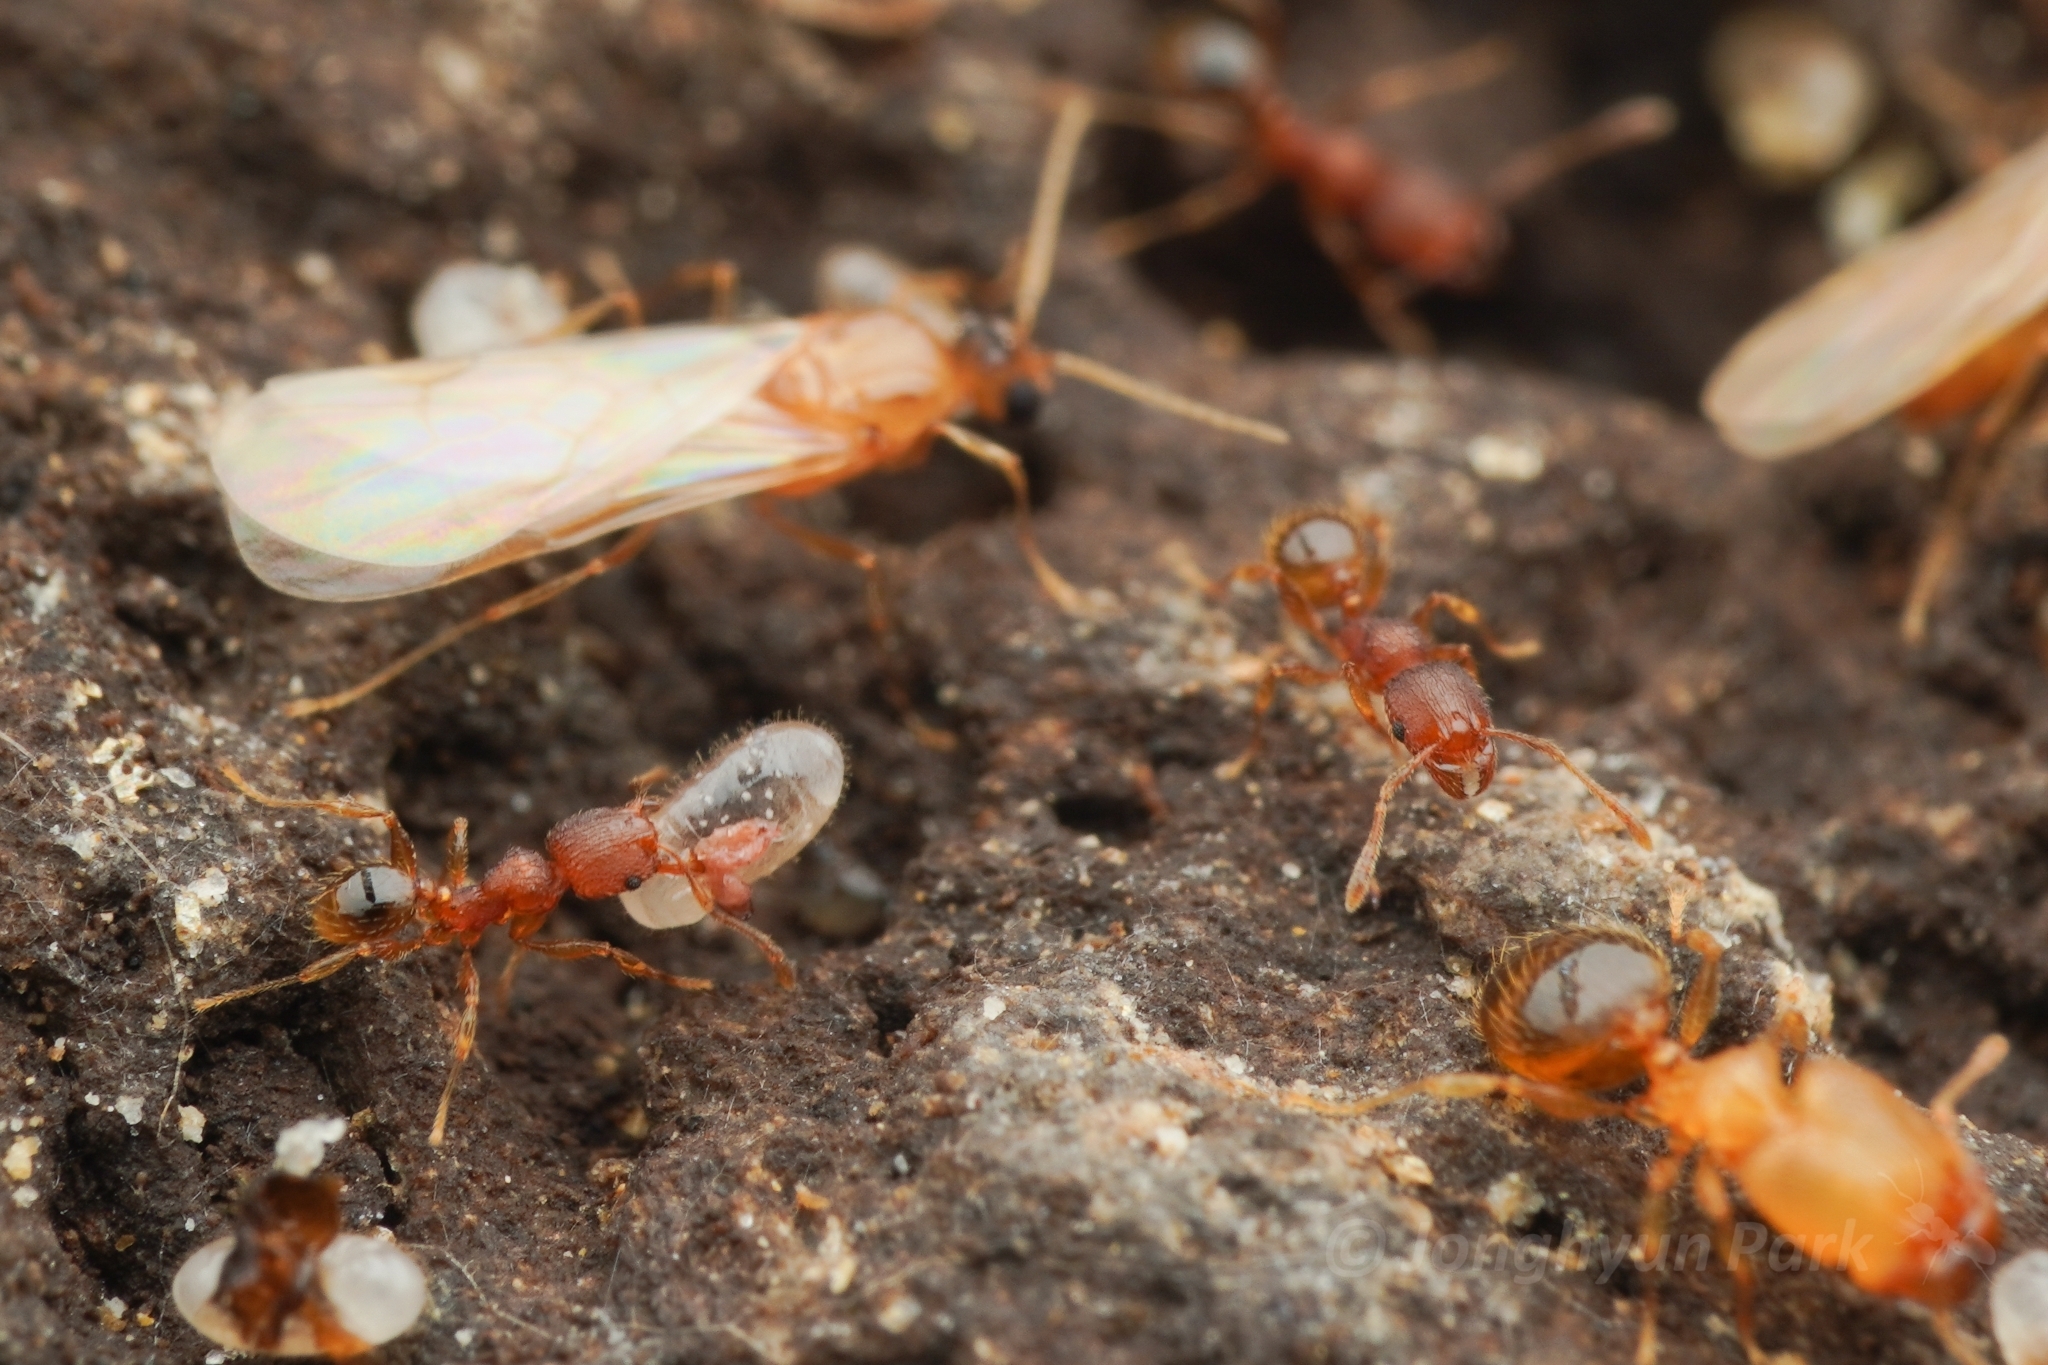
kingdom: Animalia
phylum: Arthropoda
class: Insecta
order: Hymenoptera
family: Formicidae
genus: Pheidole
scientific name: Pheidole parva
